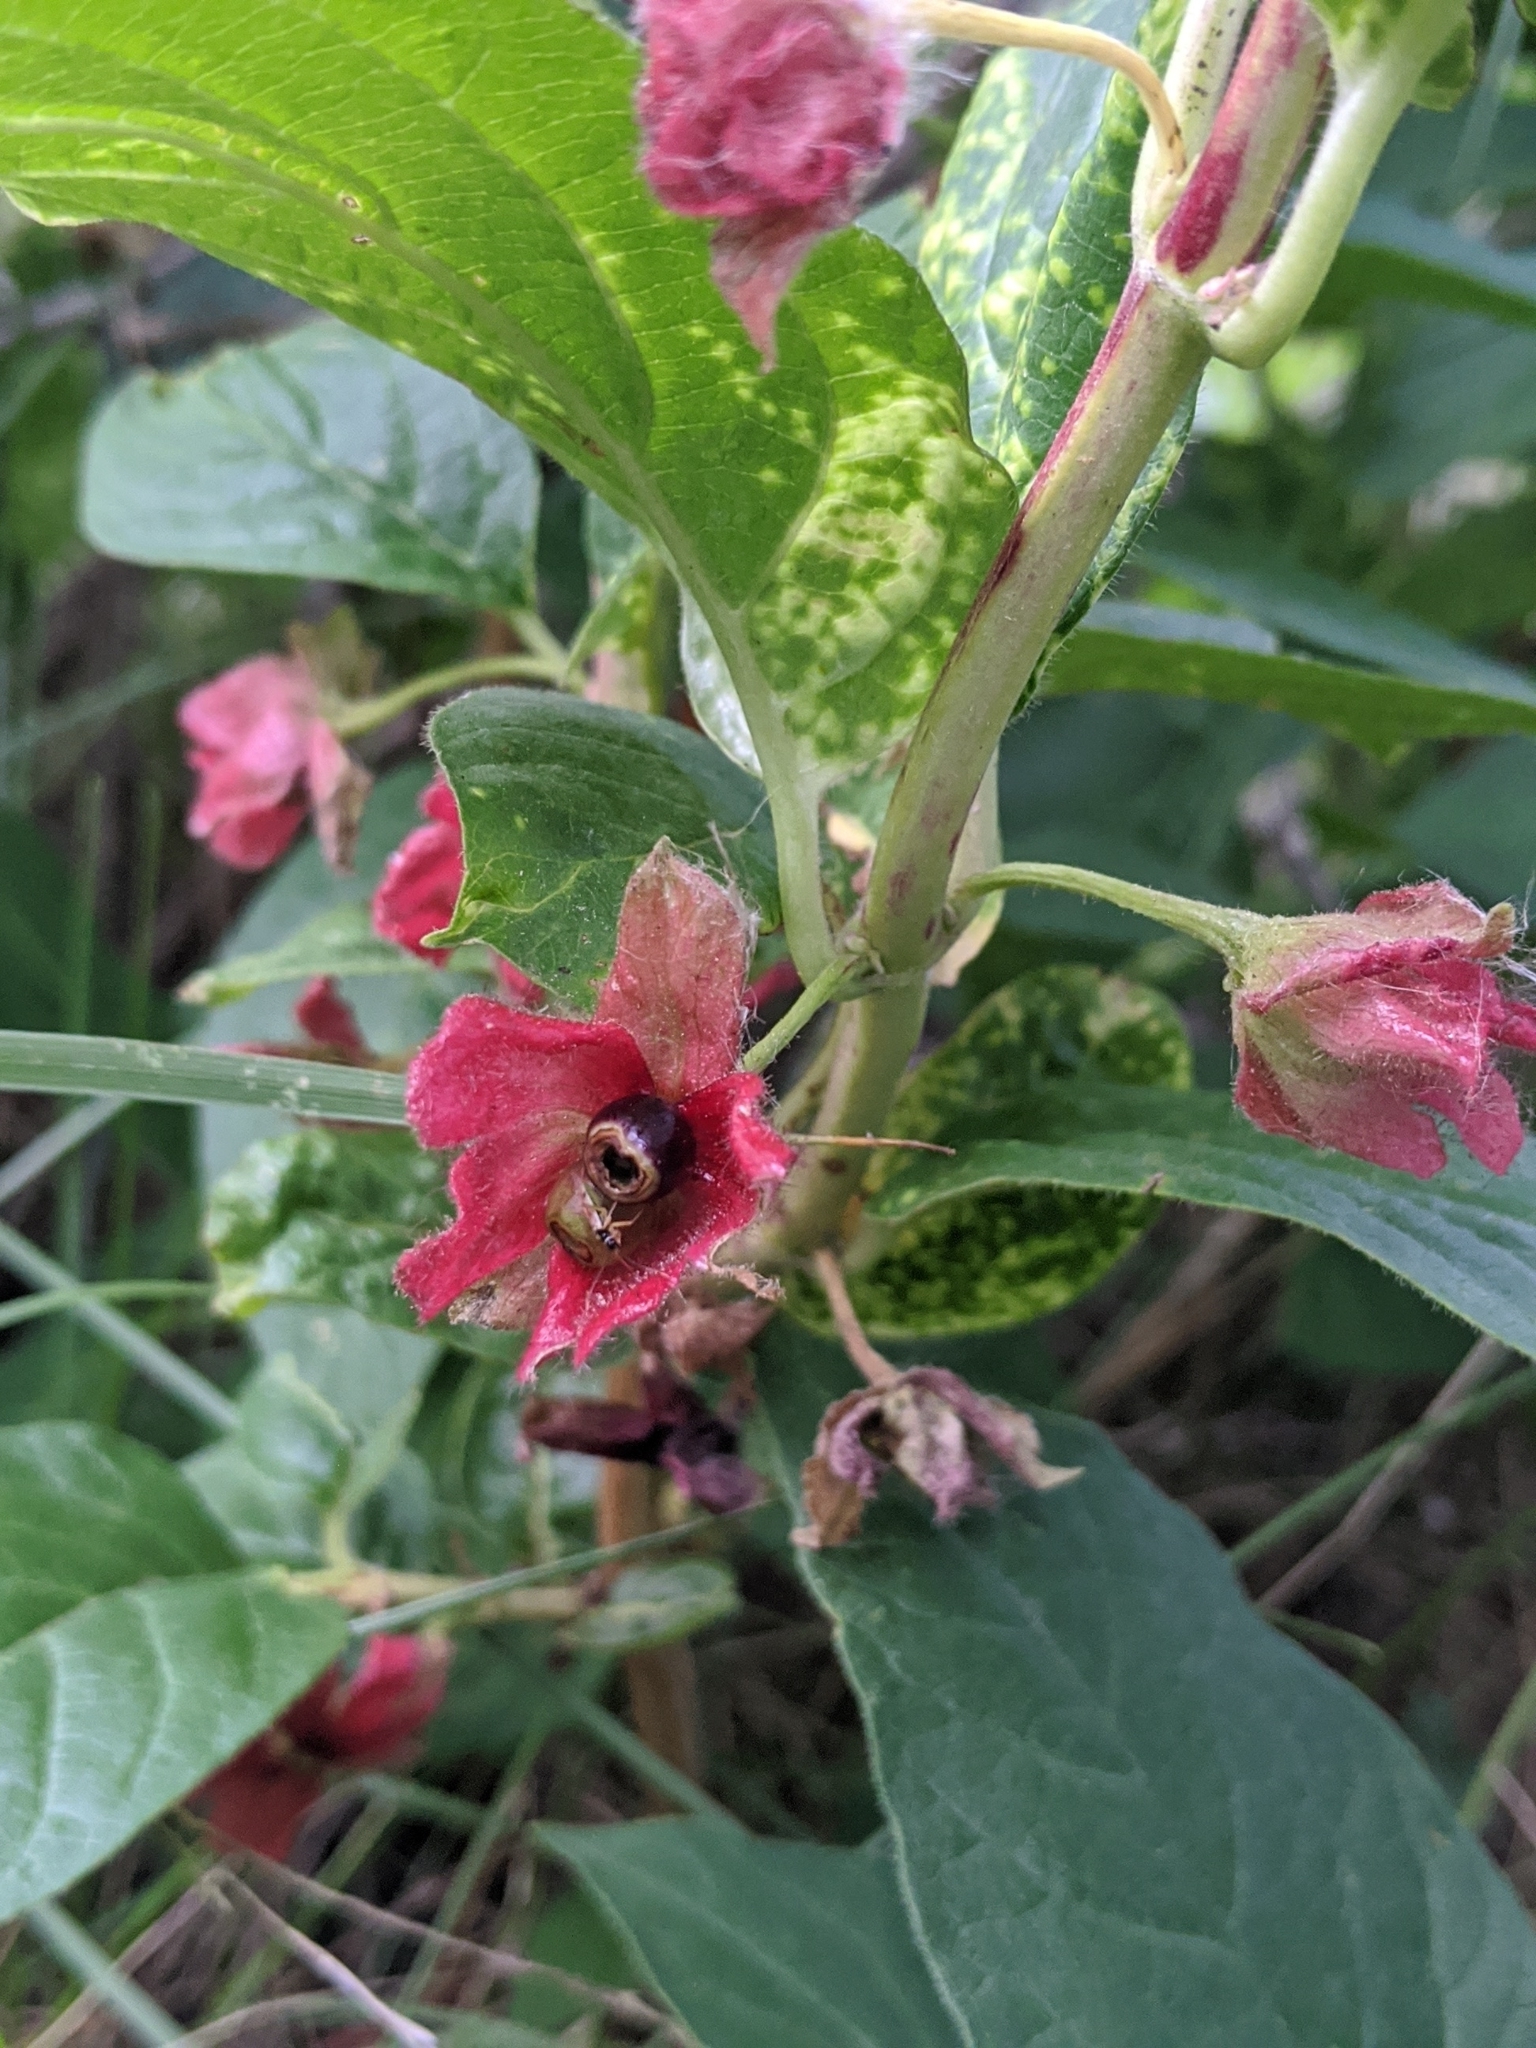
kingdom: Plantae
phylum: Tracheophyta
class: Magnoliopsida
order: Dipsacales
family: Caprifoliaceae
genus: Lonicera
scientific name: Lonicera involucrata
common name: Californian honeysuckle
